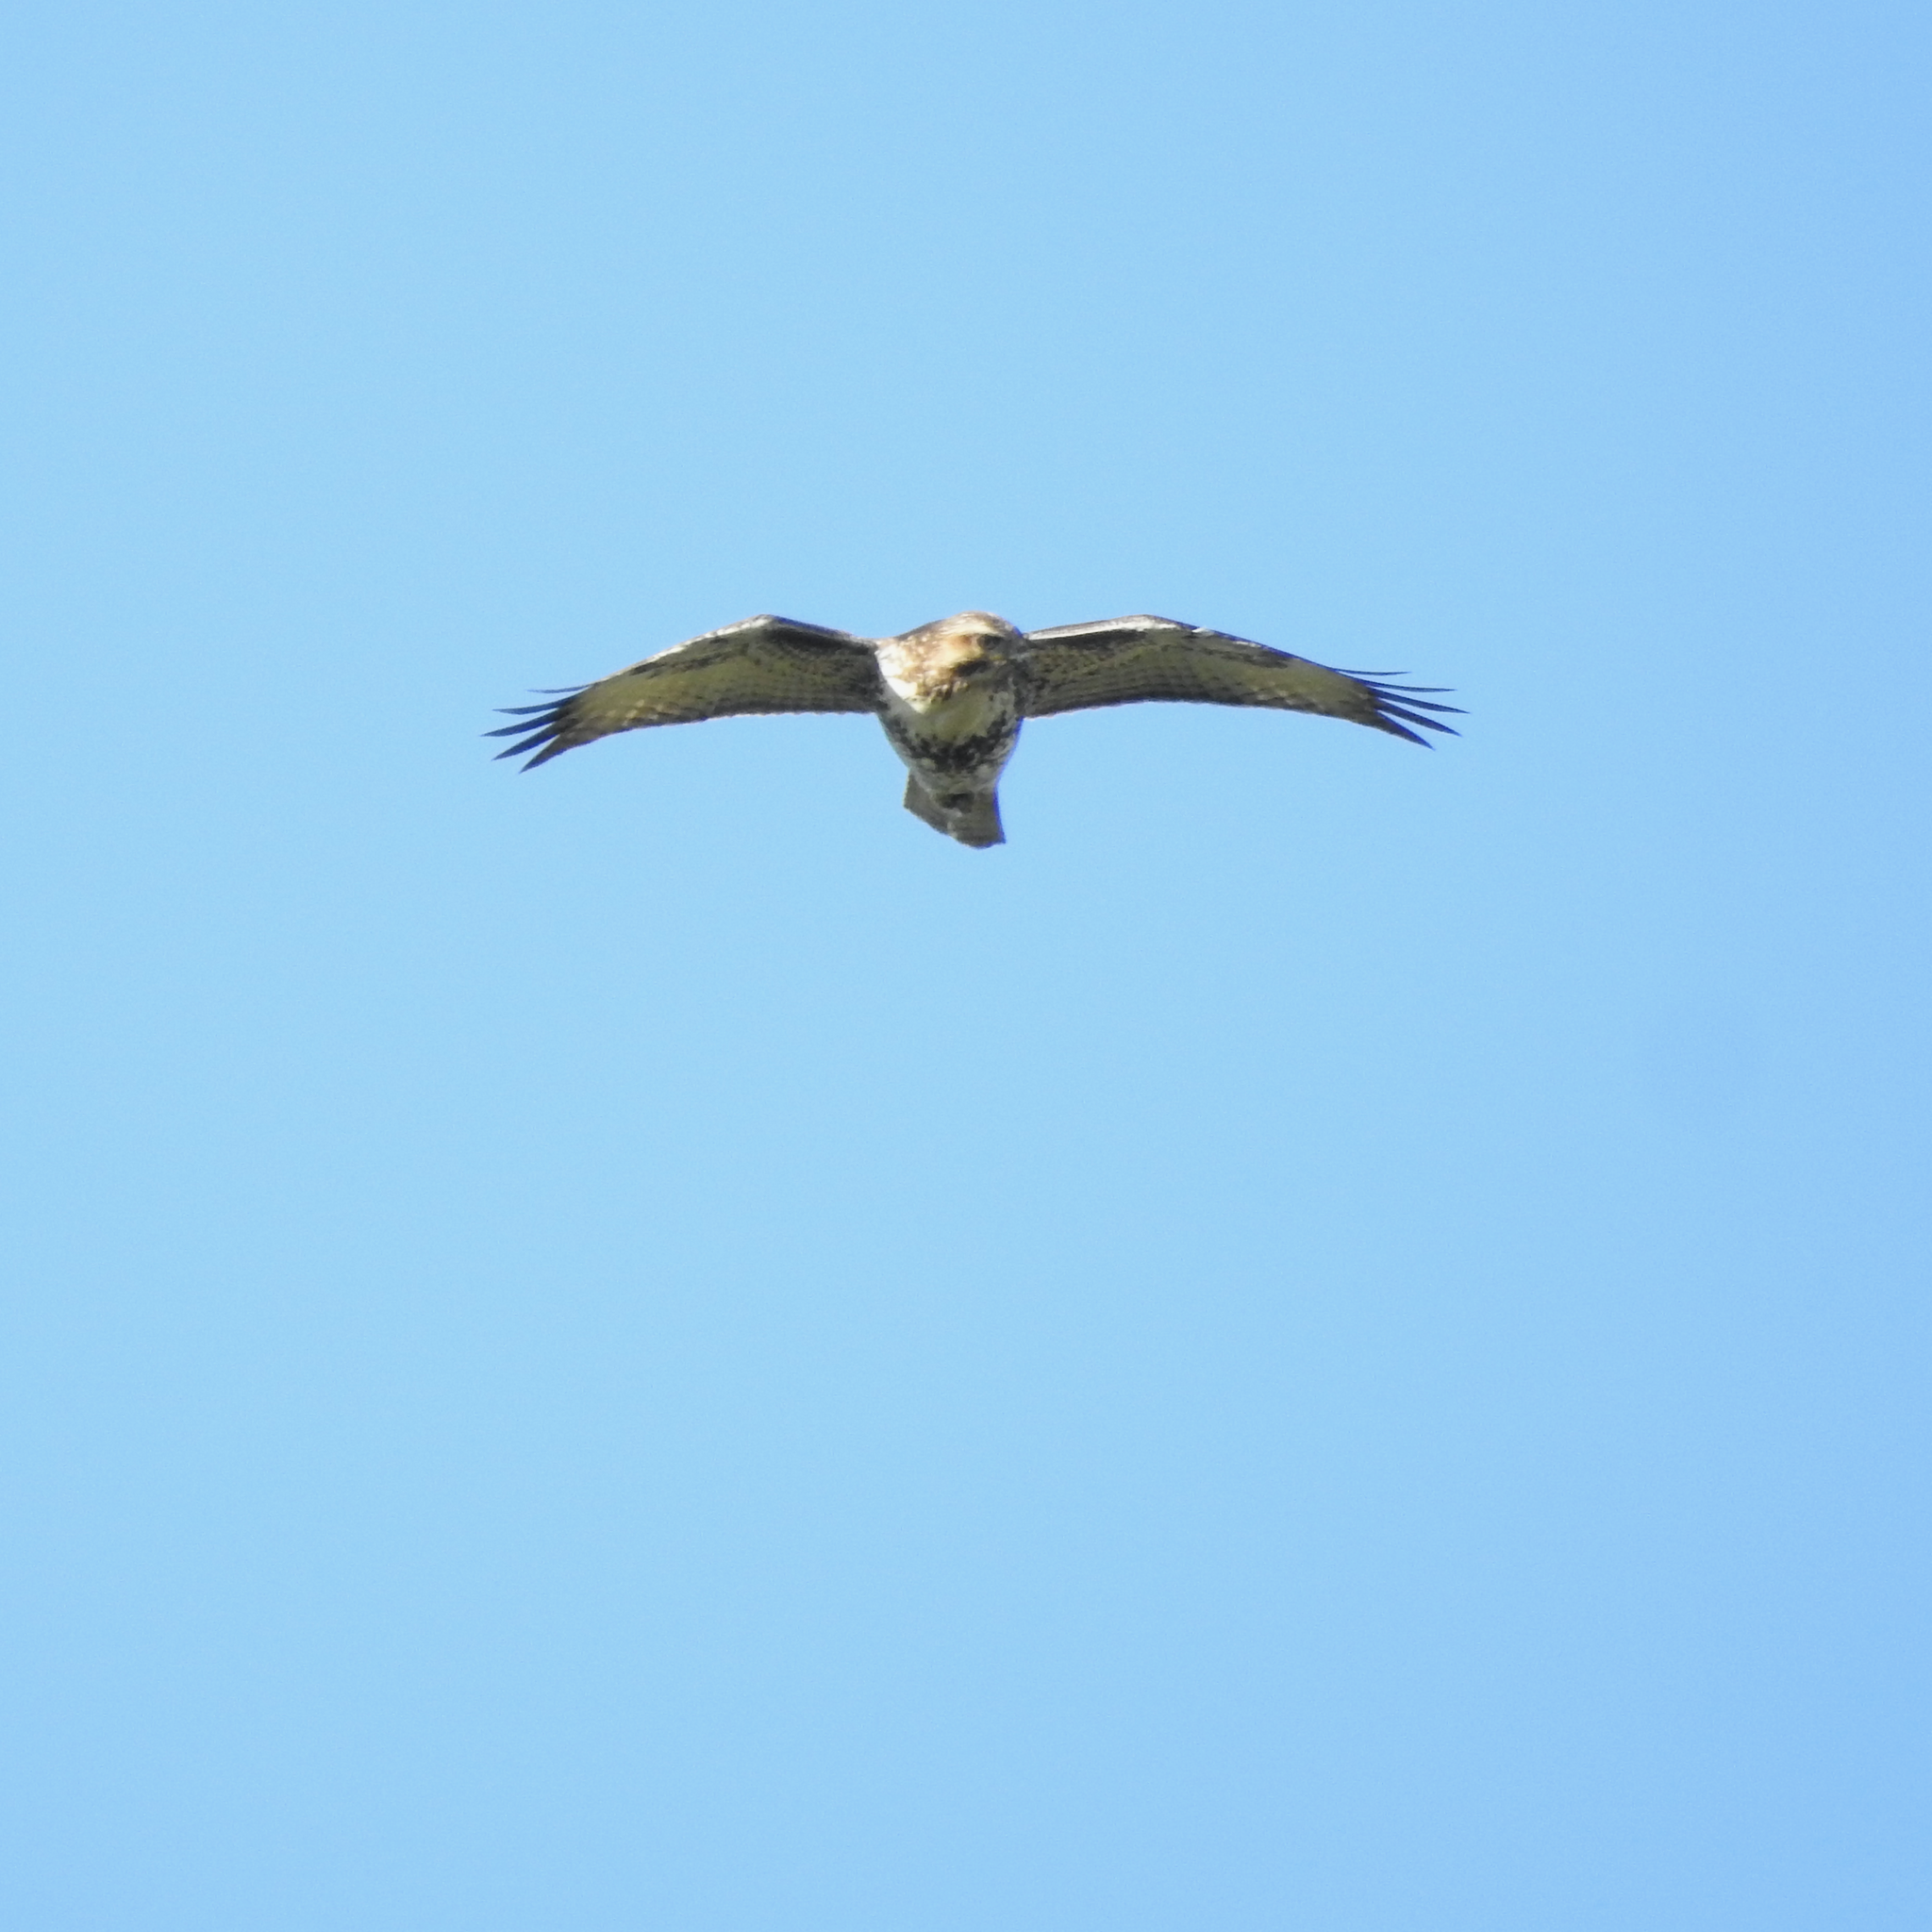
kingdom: Animalia
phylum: Chordata
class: Aves
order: Accipitriformes
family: Accipitridae
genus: Buteo
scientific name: Buteo jamaicensis
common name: Red-tailed hawk
